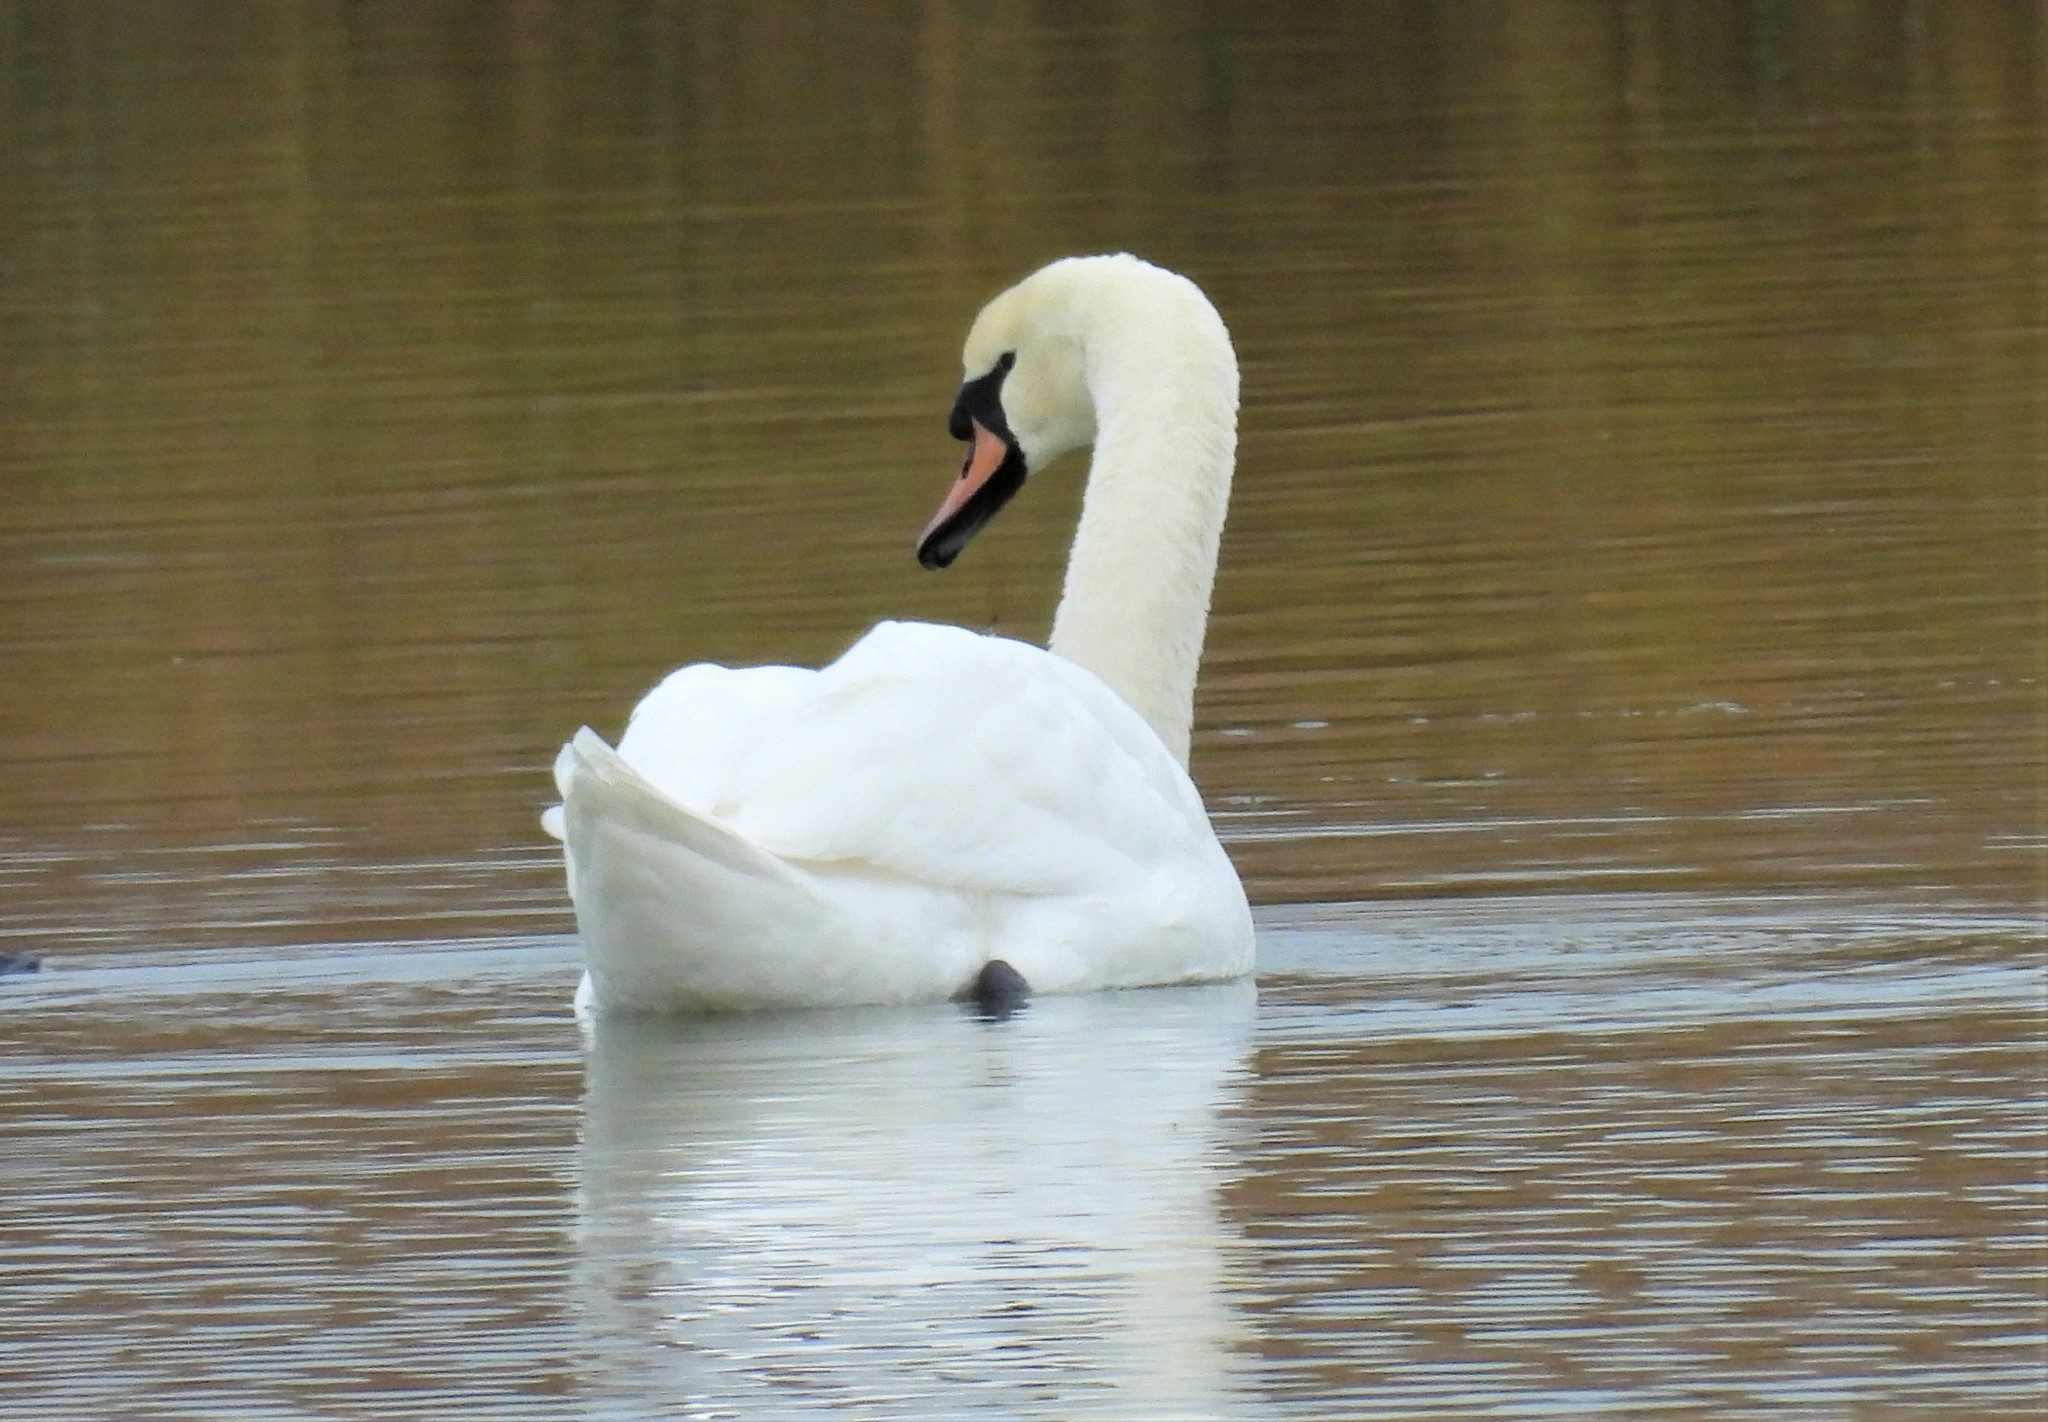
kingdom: Animalia
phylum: Chordata
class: Aves
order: Anseriformes
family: Anatidae
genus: Cygnus
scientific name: Cygnus olor
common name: Mute swan
